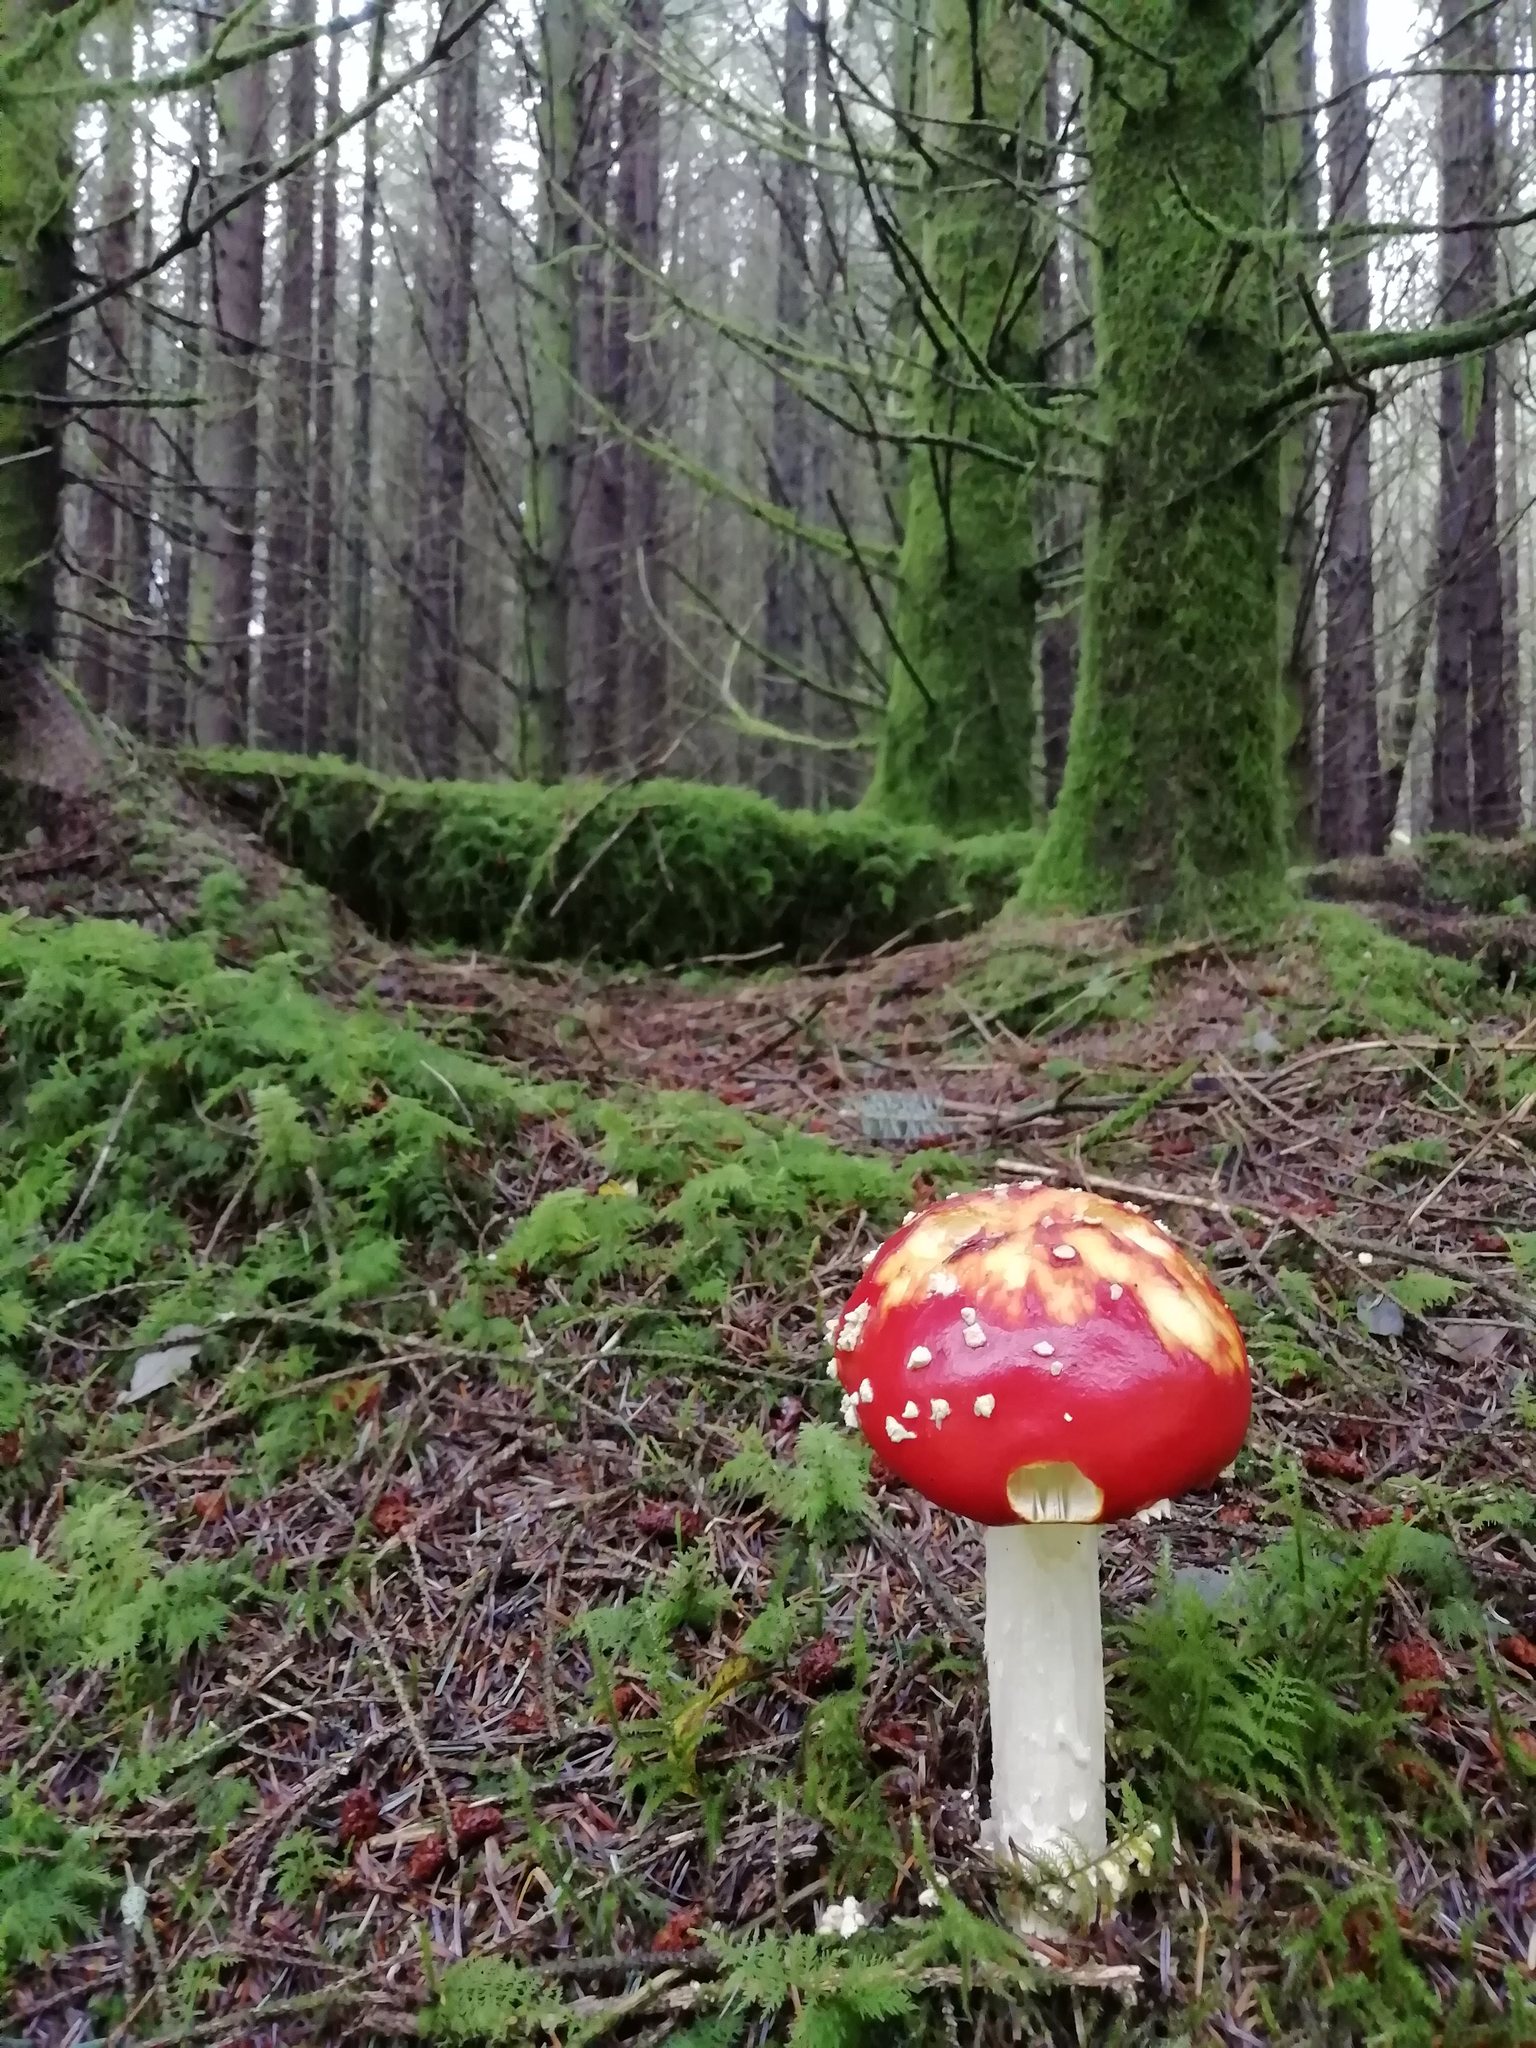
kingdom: Fungi
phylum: Basidiomycota
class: Agaricomycetes
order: Agaricales
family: Amanitaceae
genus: Amanita
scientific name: Amanita muscaria
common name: Fly agaric
